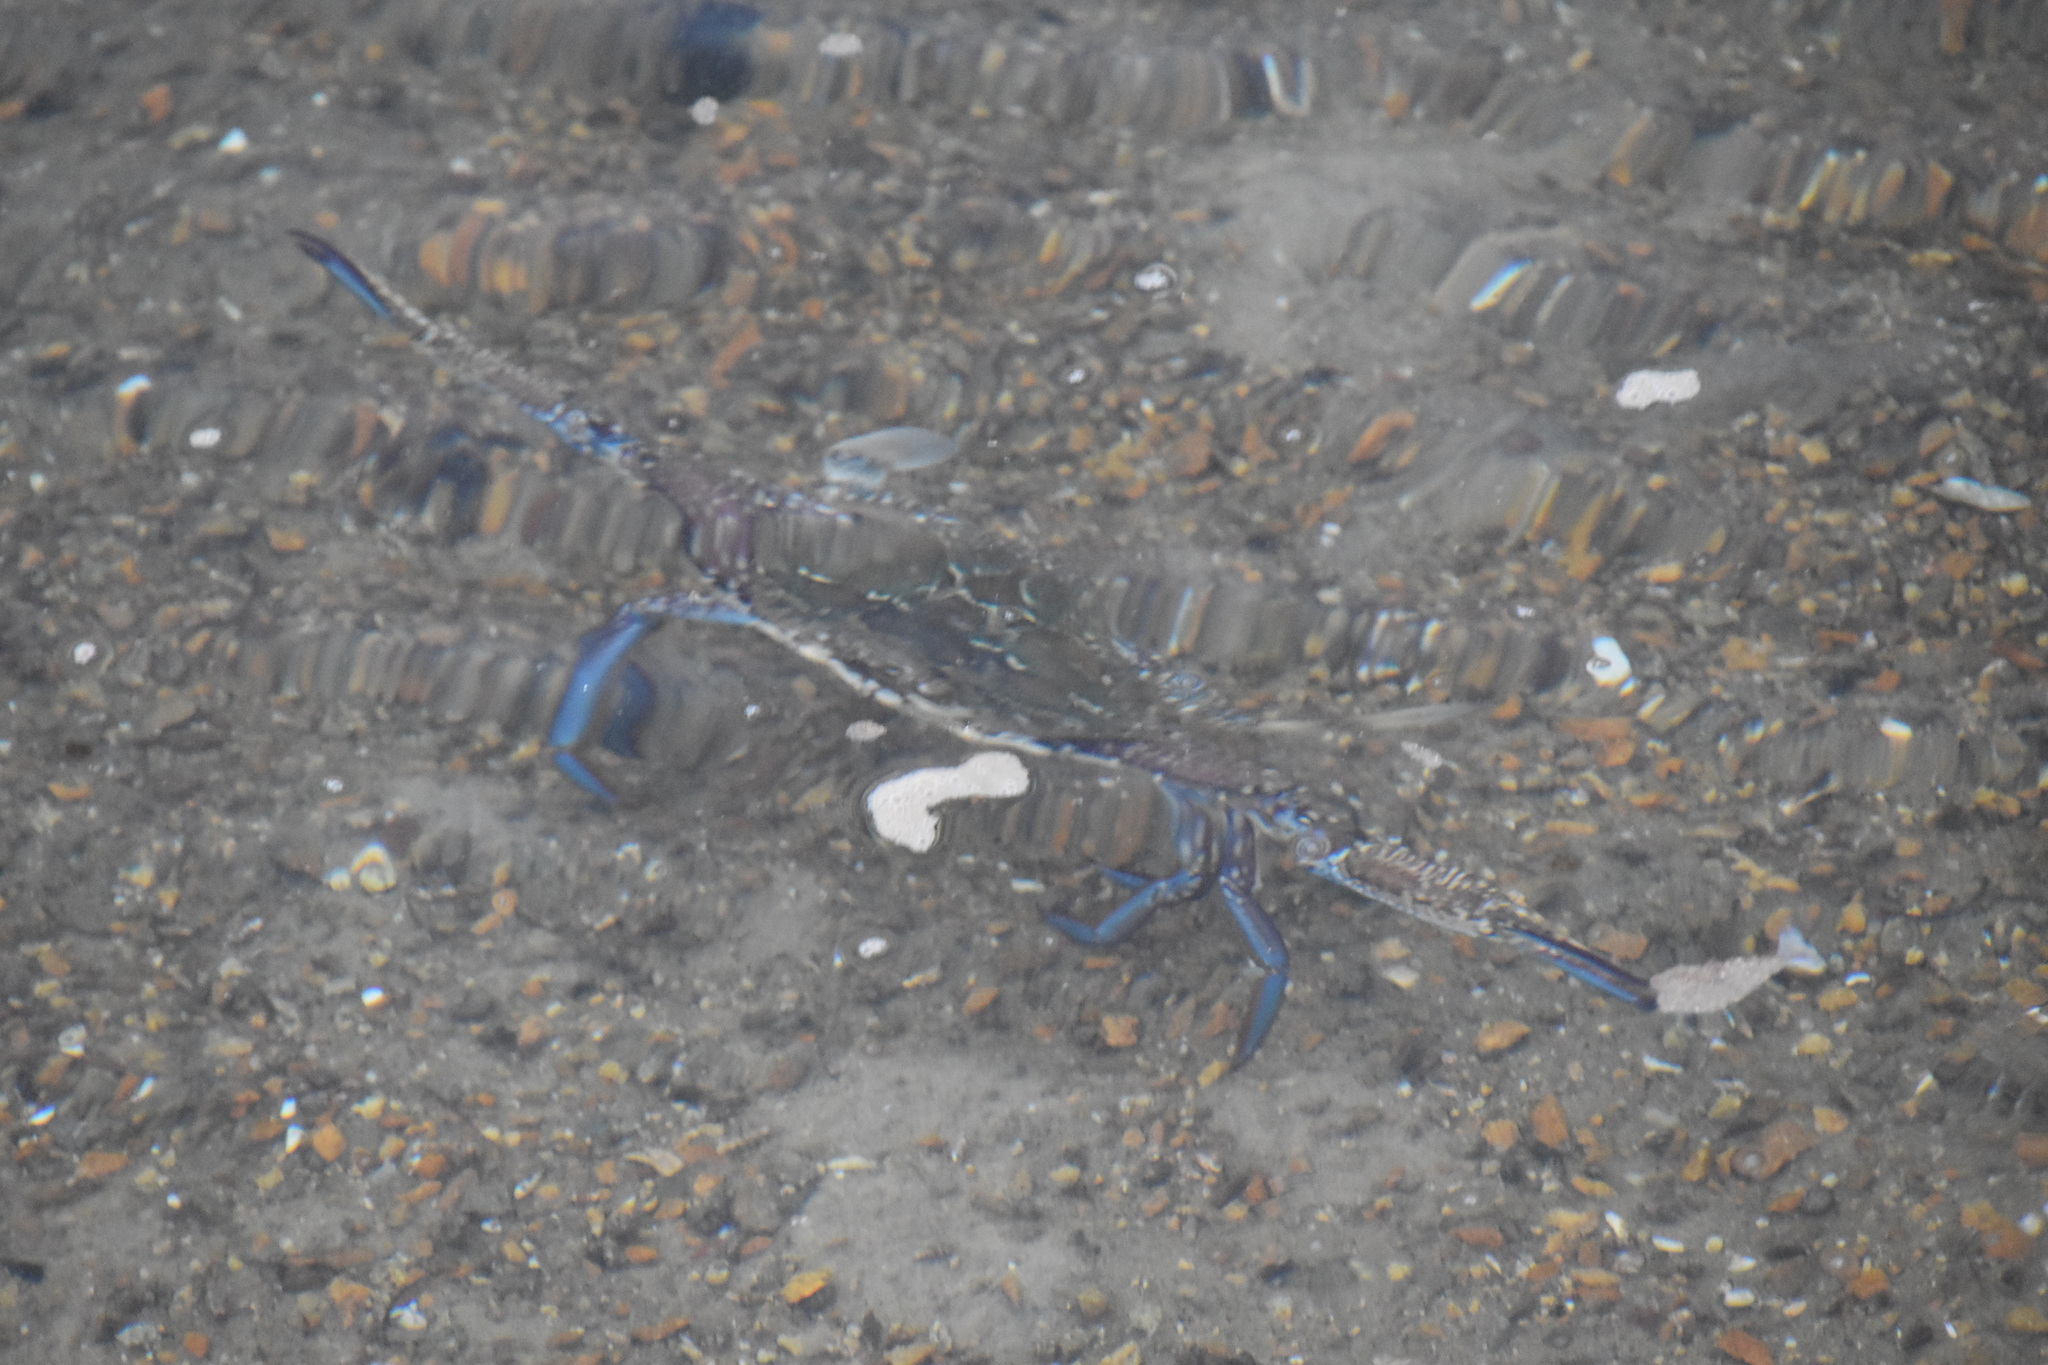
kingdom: Animalia
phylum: Arthropoda
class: Malacostraca
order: Decapoda
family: Portunidae
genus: Portunus
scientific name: Portunus armatus
